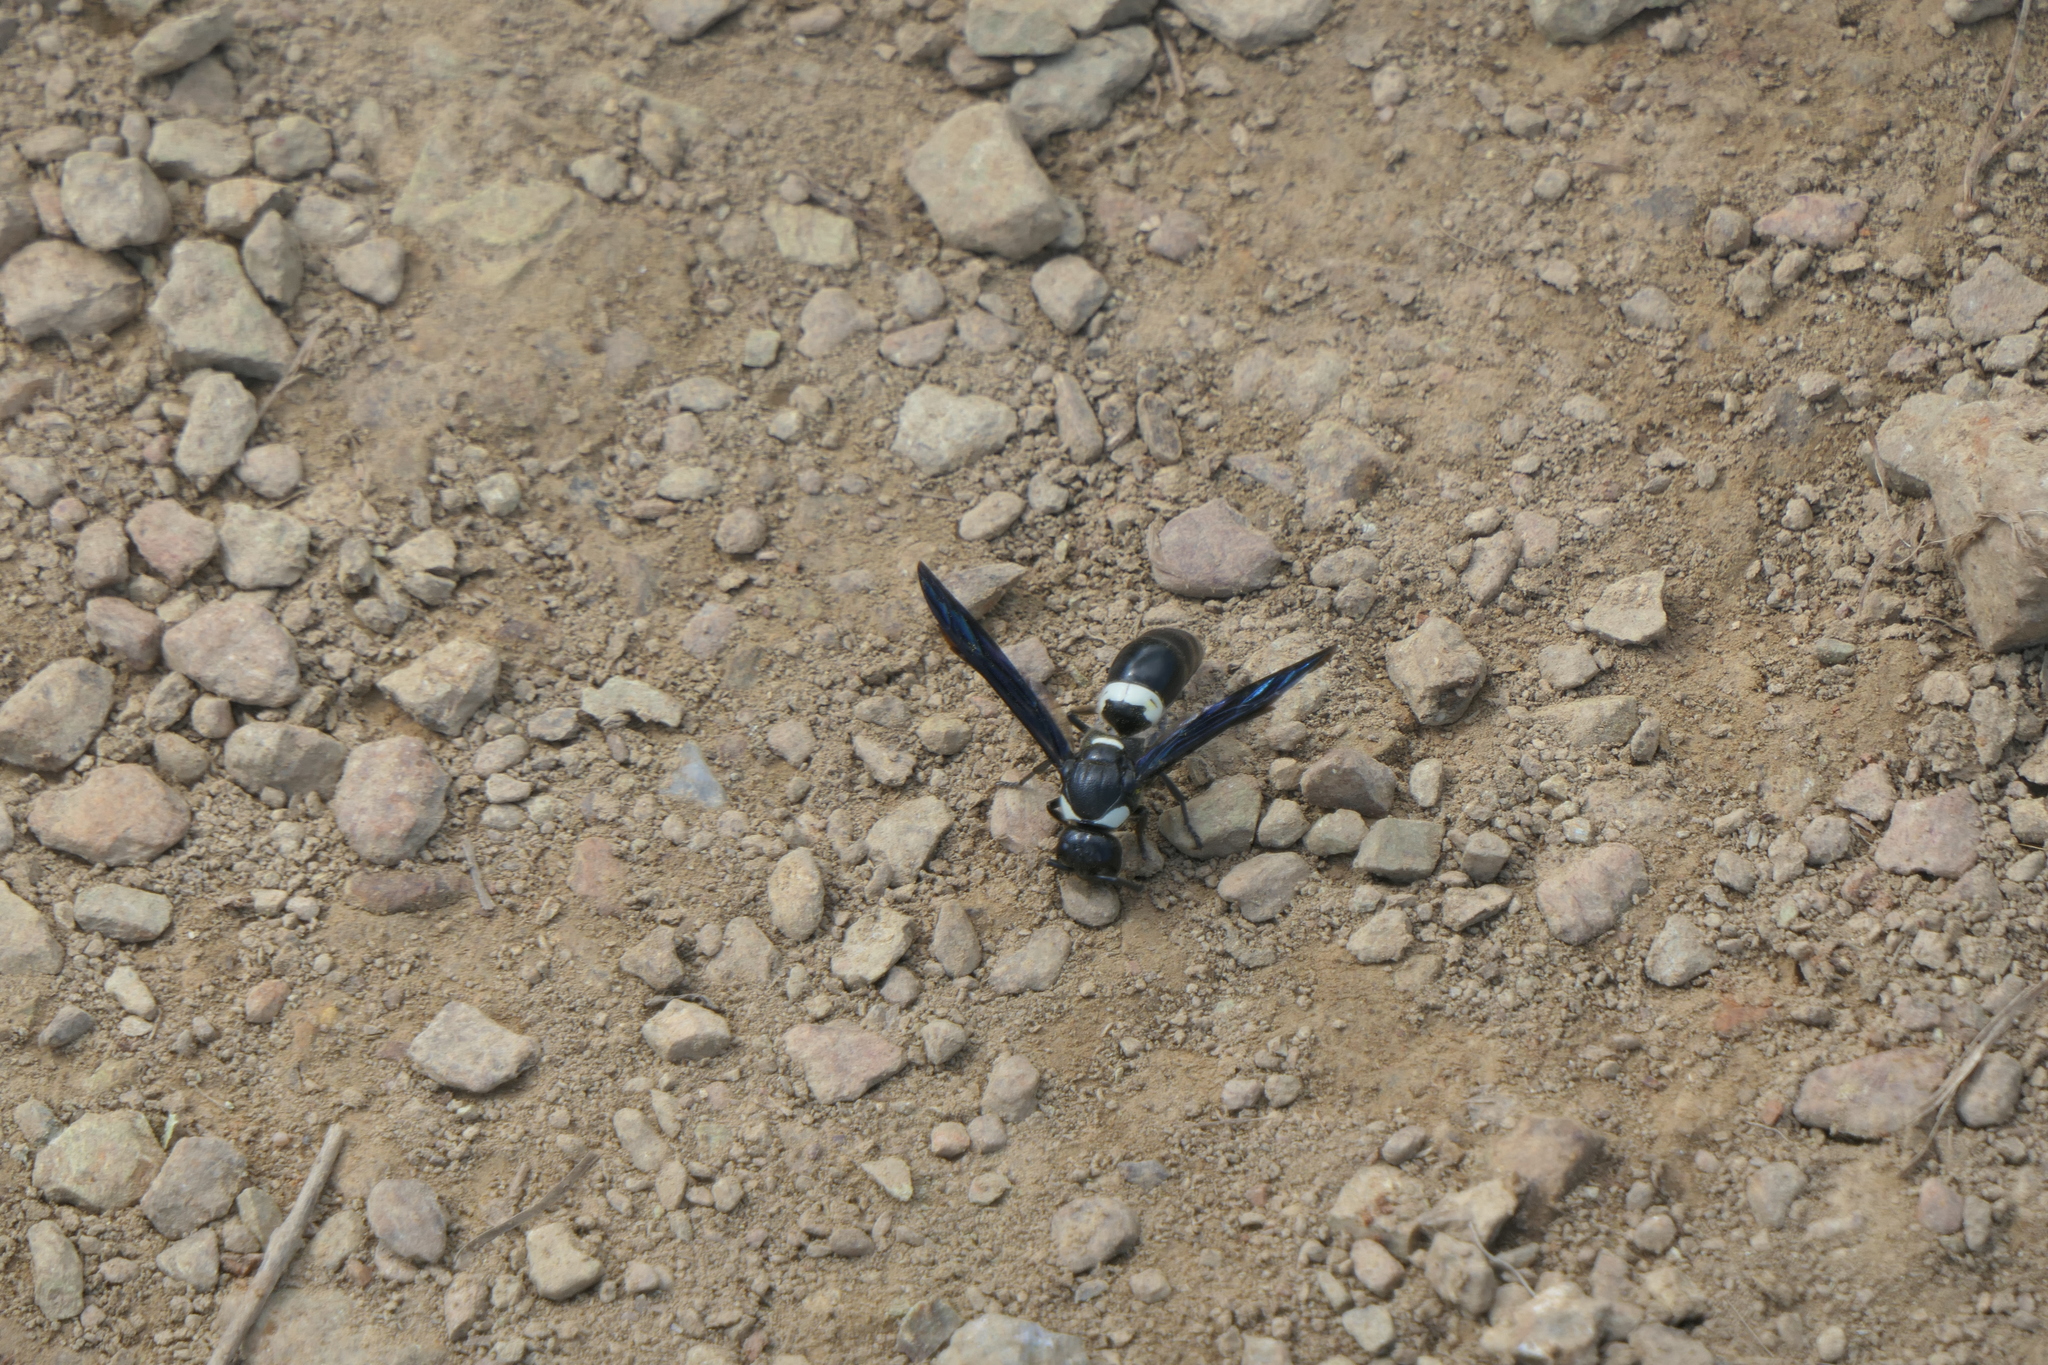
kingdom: Animalia
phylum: Arthropoda
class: Insecta
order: Hymenoptera
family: Eumenidae
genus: Monobia
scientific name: Monobia quadridens
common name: Four-toothed mason wasp
